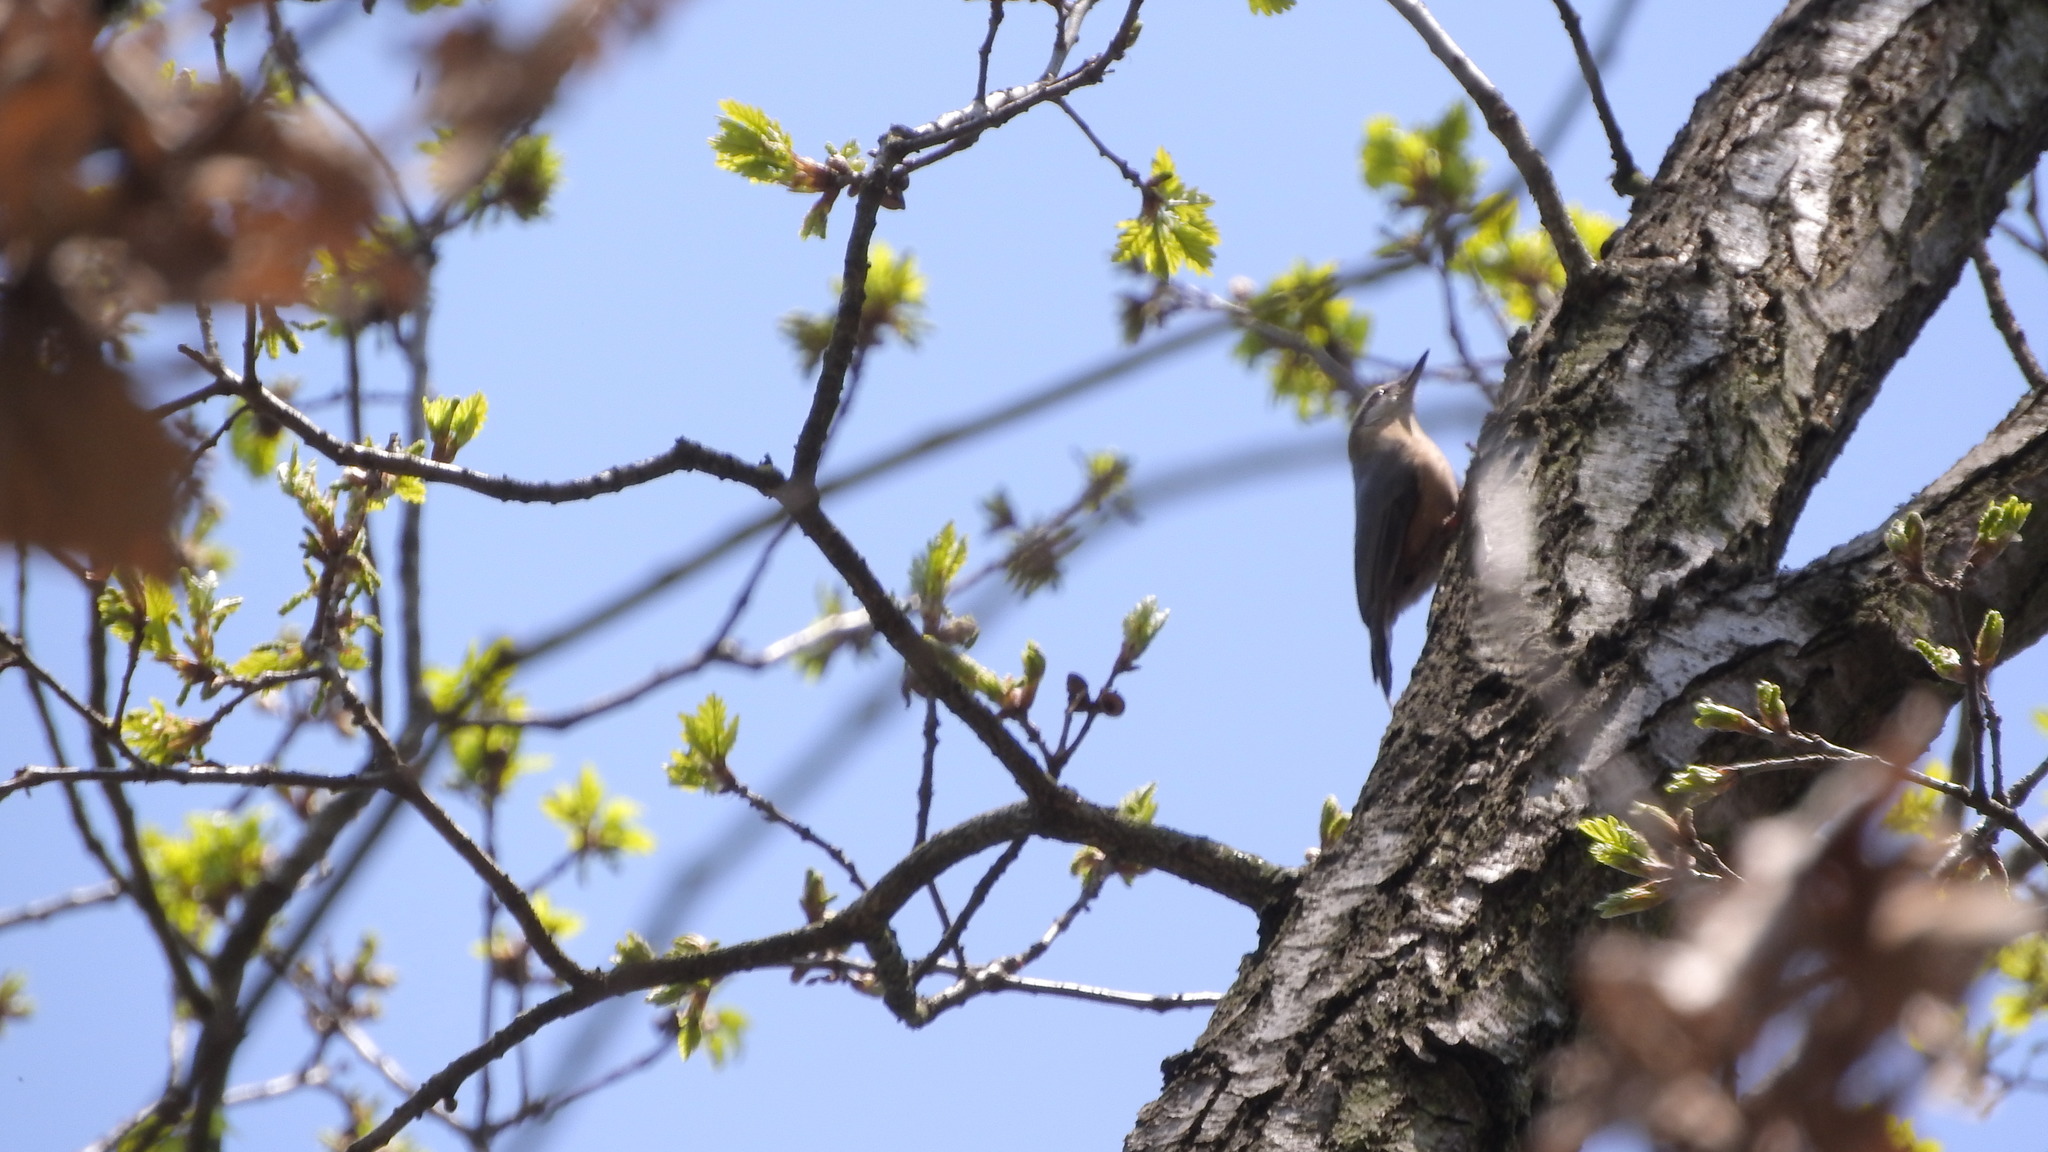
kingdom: Animalia
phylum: Chordata
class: Aves
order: Passeriformes
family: Sittidae
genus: Sitta
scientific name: Sitta europaea
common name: Eurasian nuthatch
